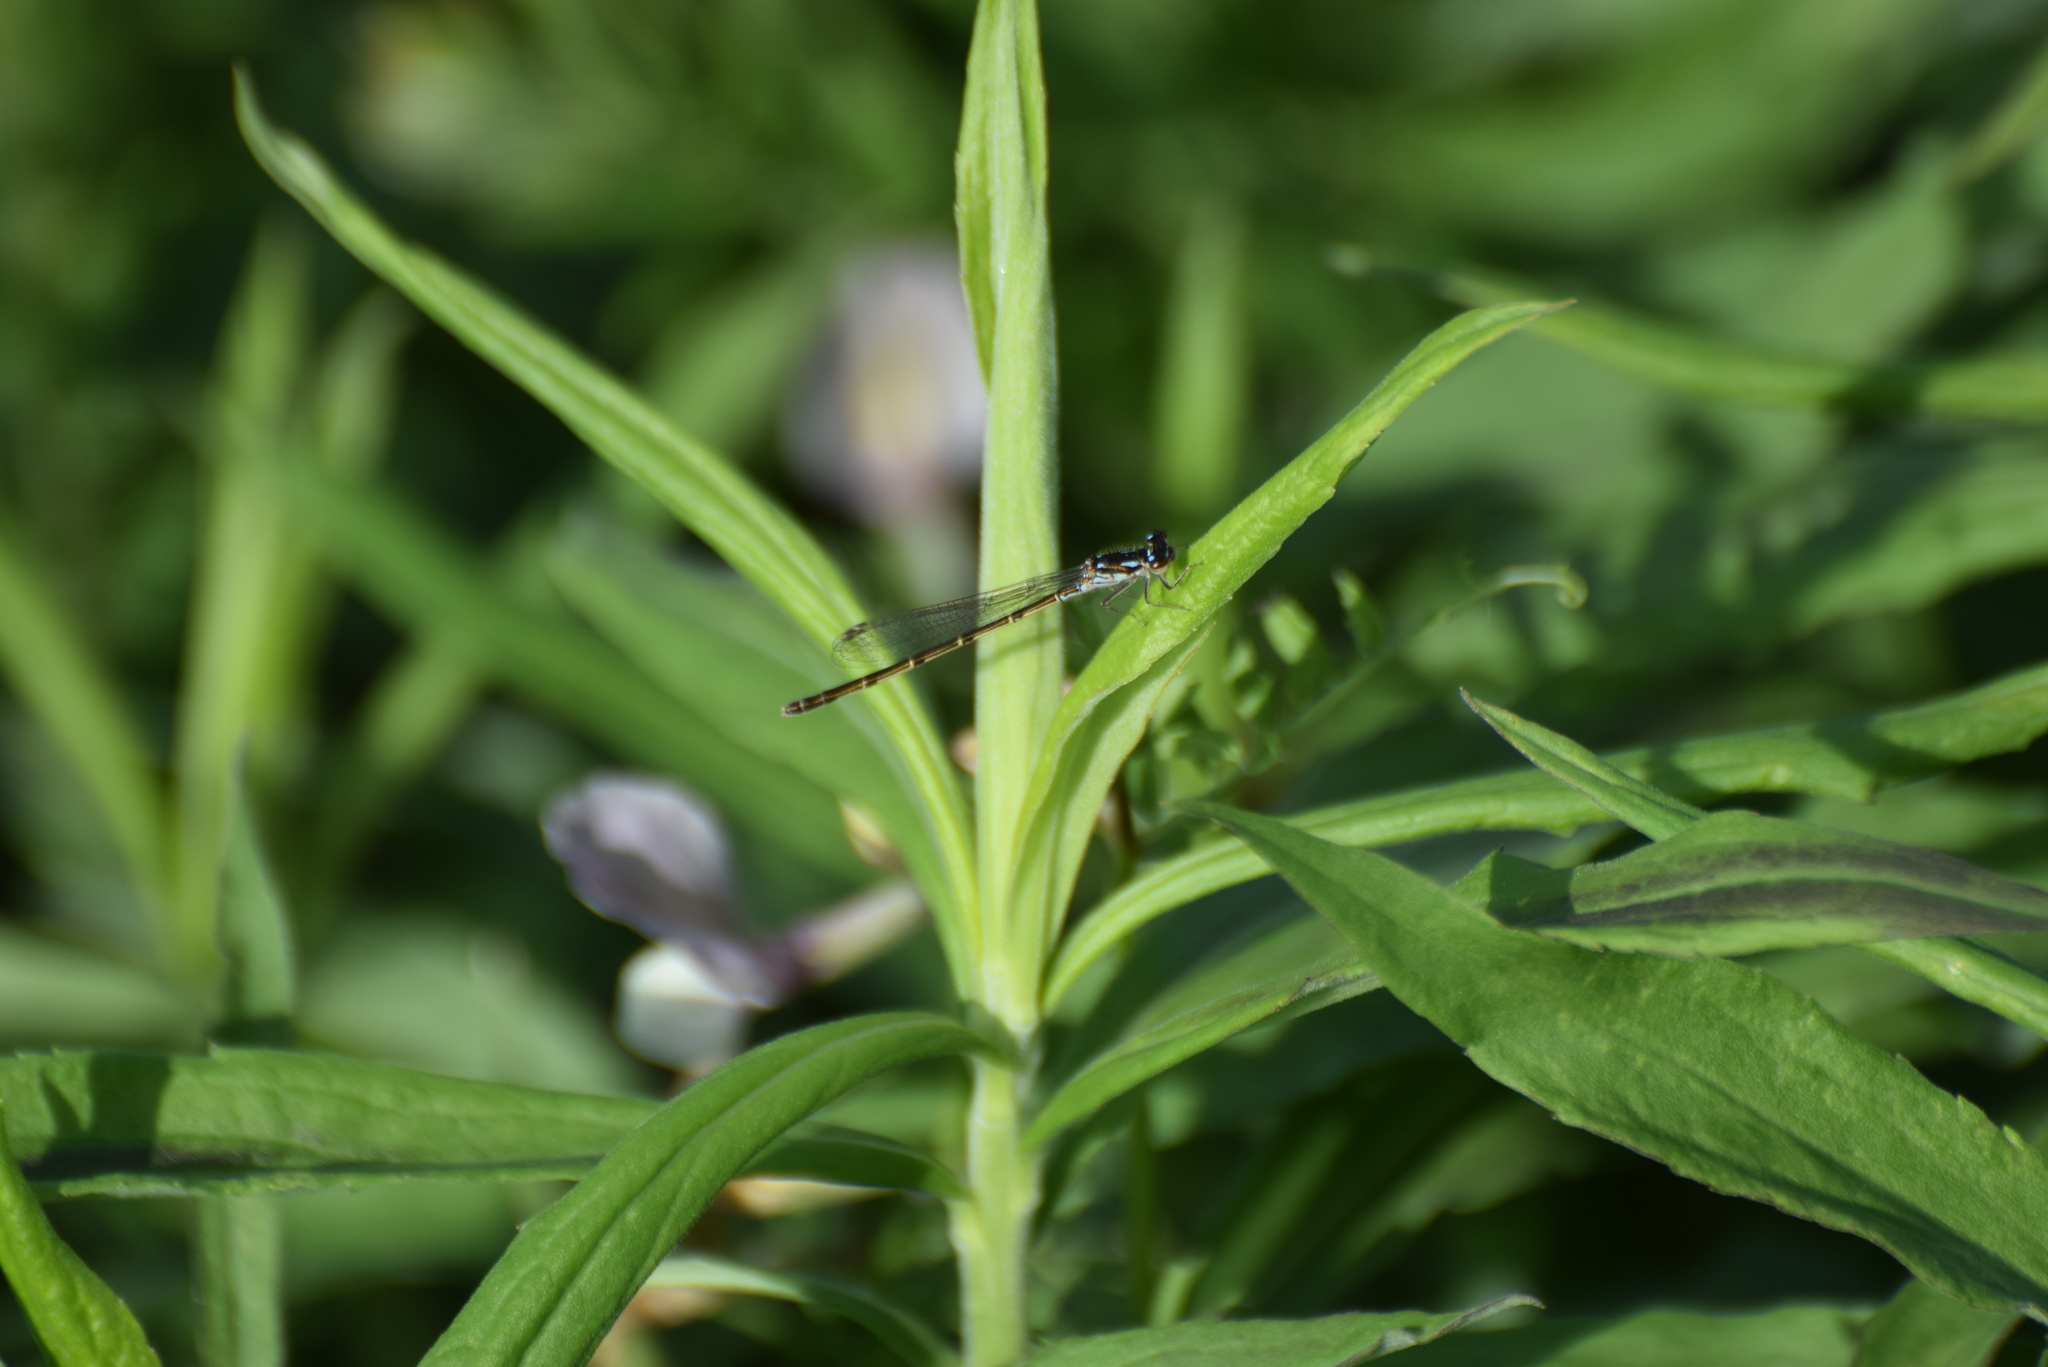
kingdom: Animalia
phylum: Arthropoda
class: Insecta
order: Odonata
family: Coenagrionidae
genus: Ischnura
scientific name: Ischnura posita
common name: Fragile forktail
